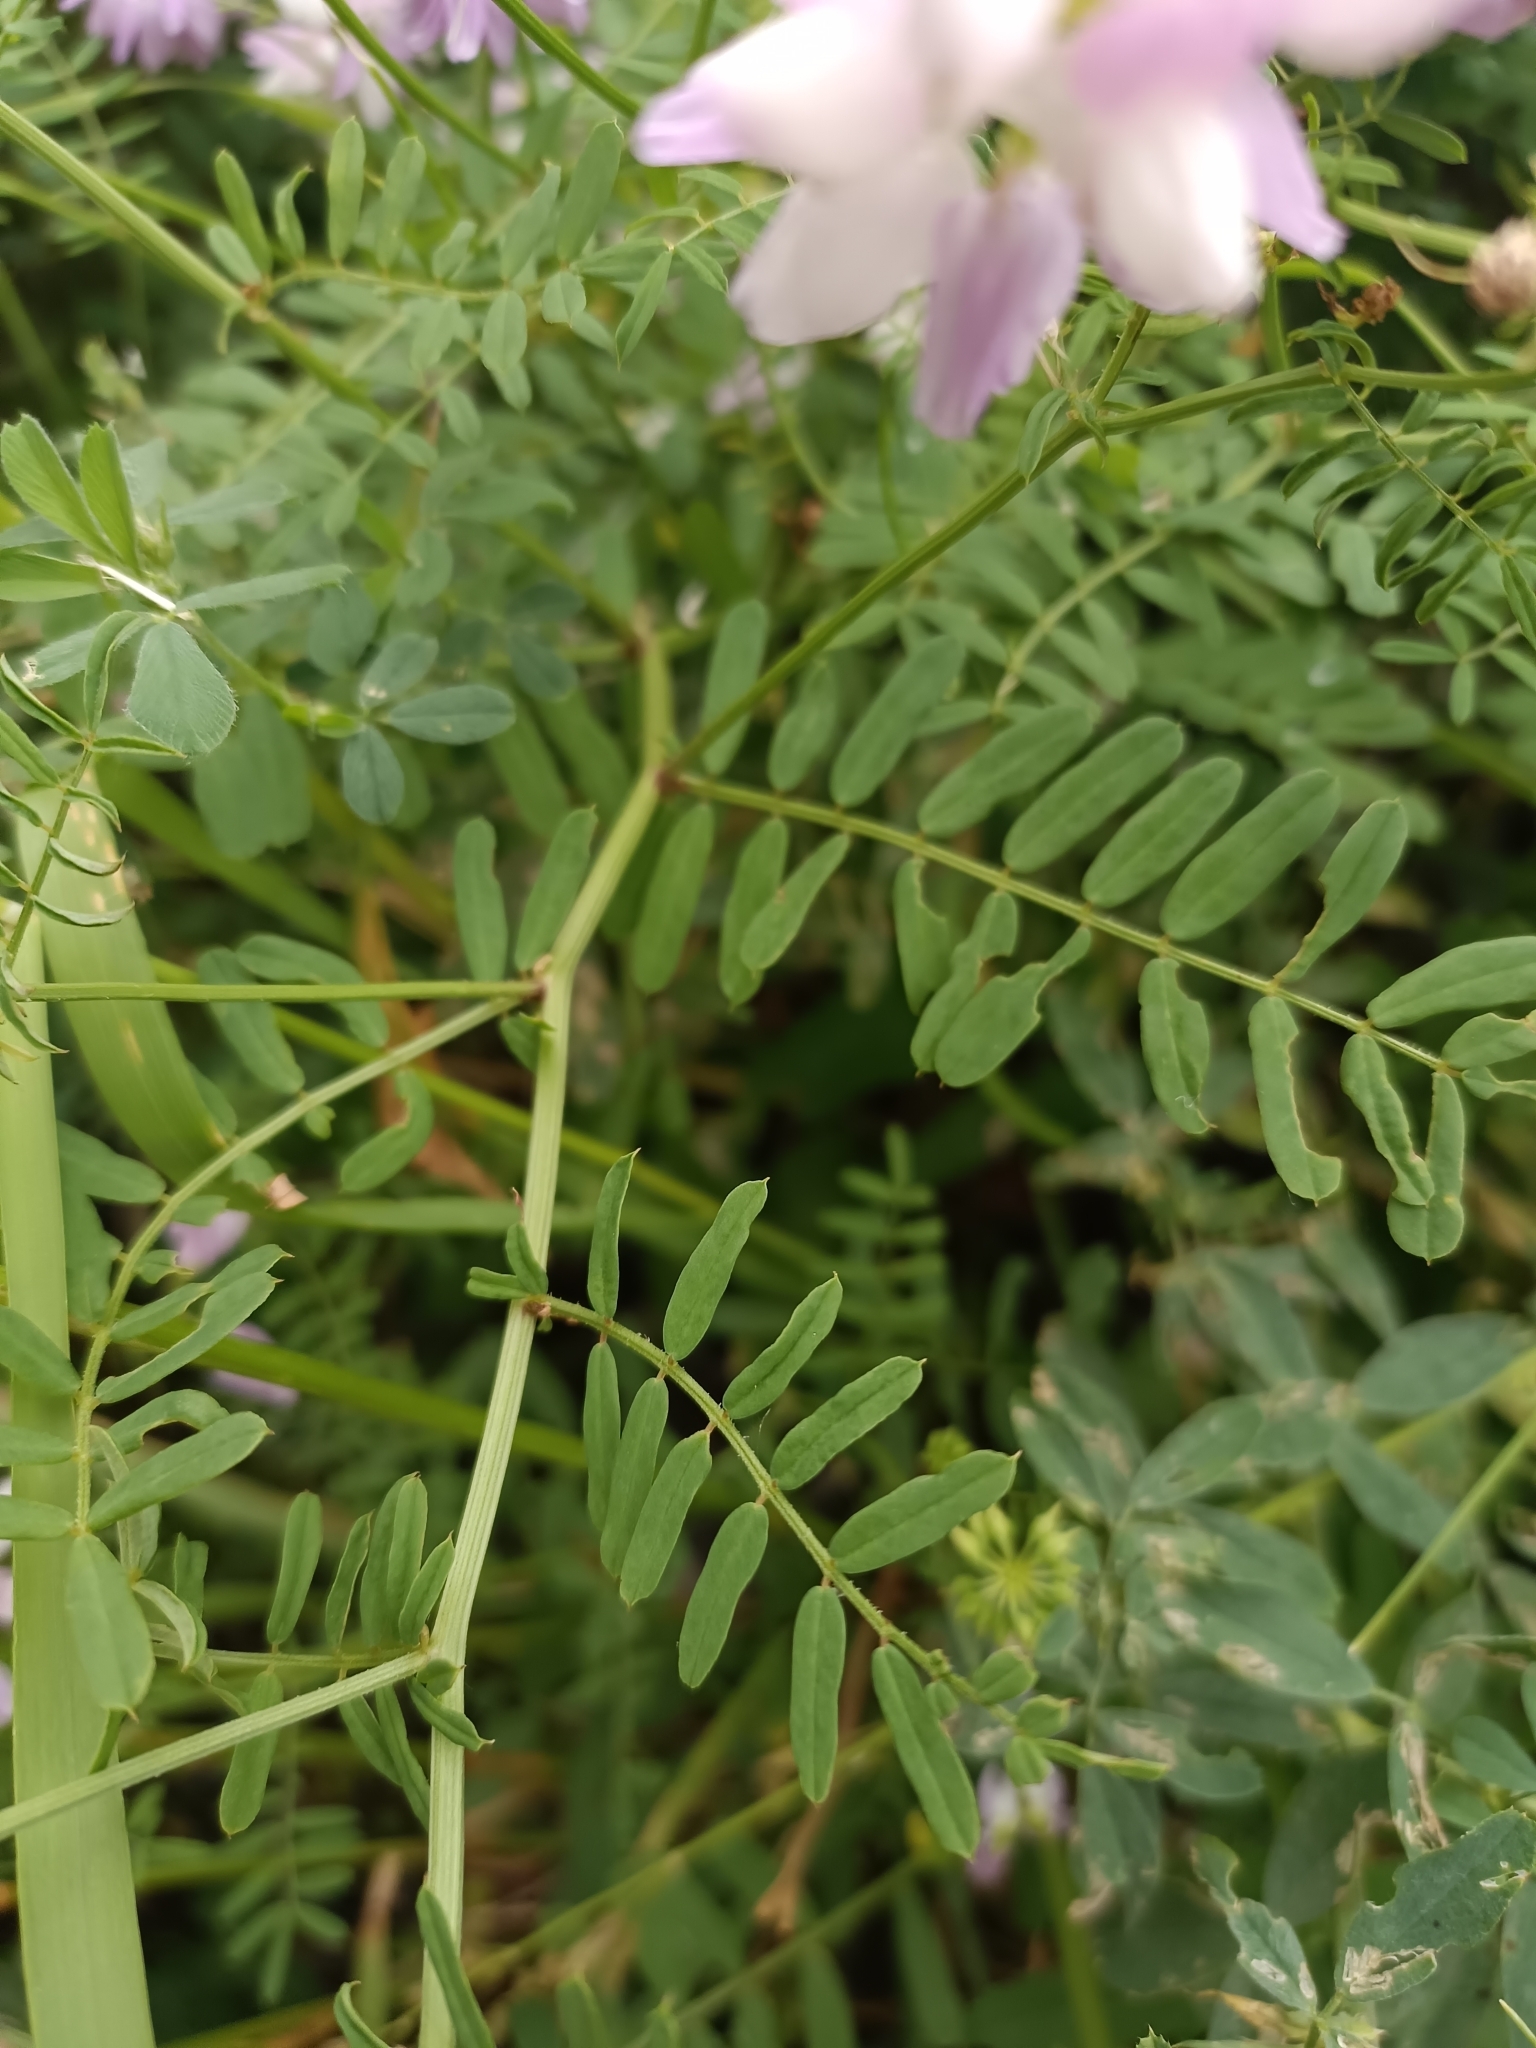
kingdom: Plantae
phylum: Tracheophyta
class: Magnoliopsida
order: Fabales
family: Fabaceae
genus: Coronilla
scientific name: Coronilla varia
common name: Crownvetch
